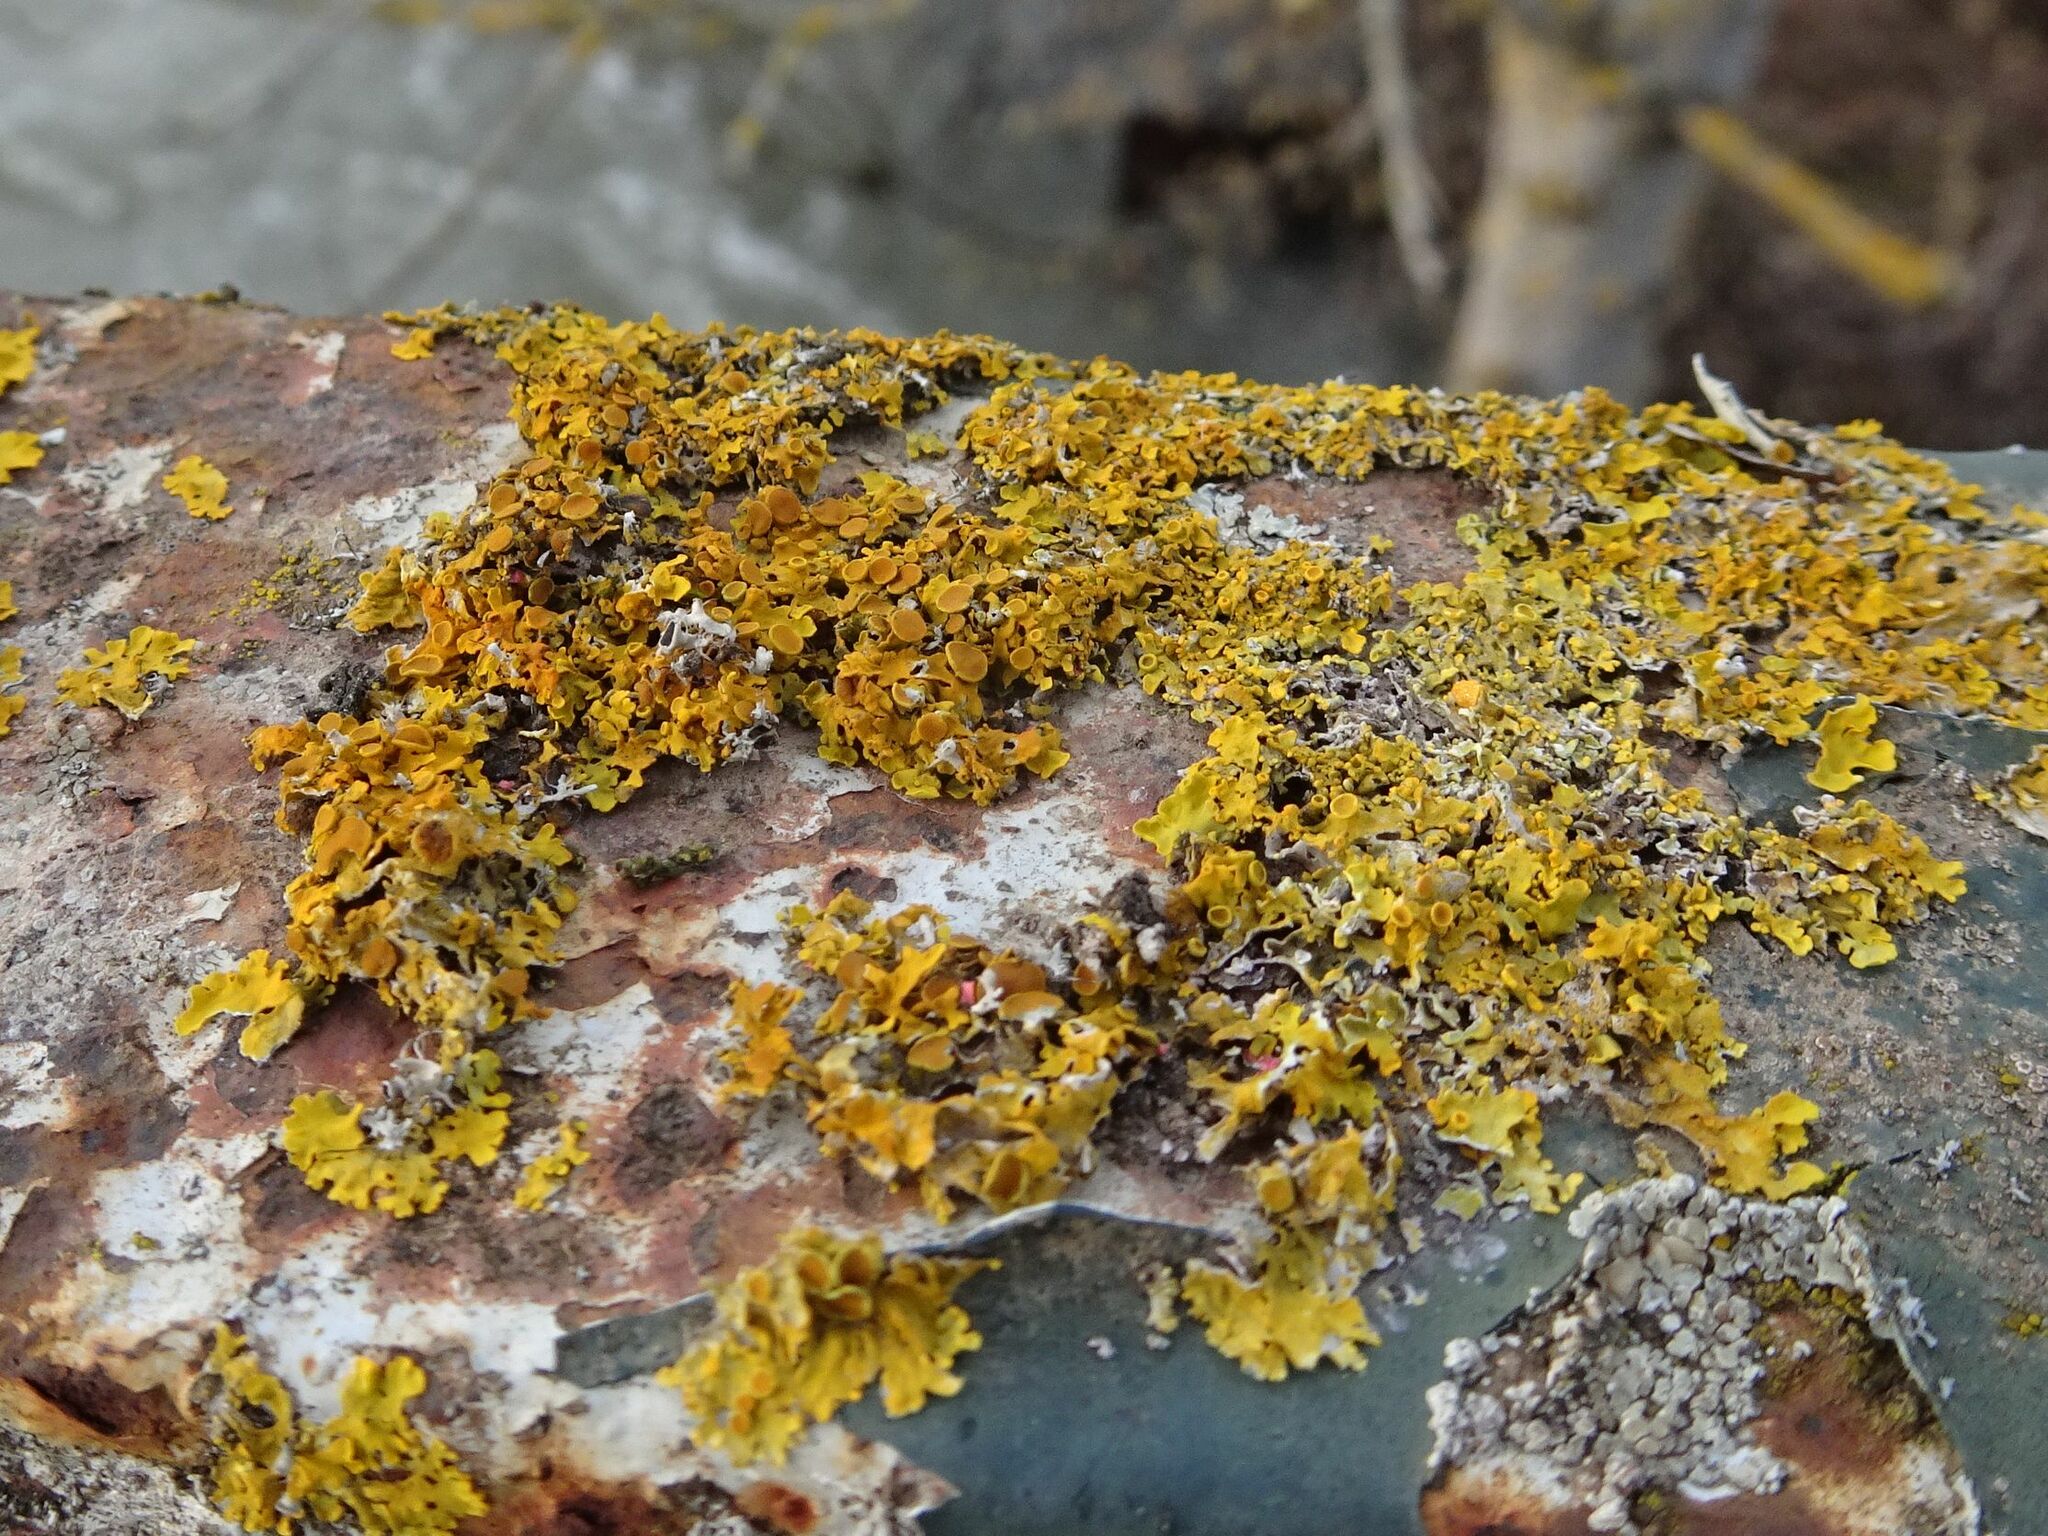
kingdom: Fungi
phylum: Ascomycota
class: Lecanoromycetes
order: Teloschistales
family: Teloschistaceae
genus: Xanthoria
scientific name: Xanthoria parietina
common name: Common orange lichen
